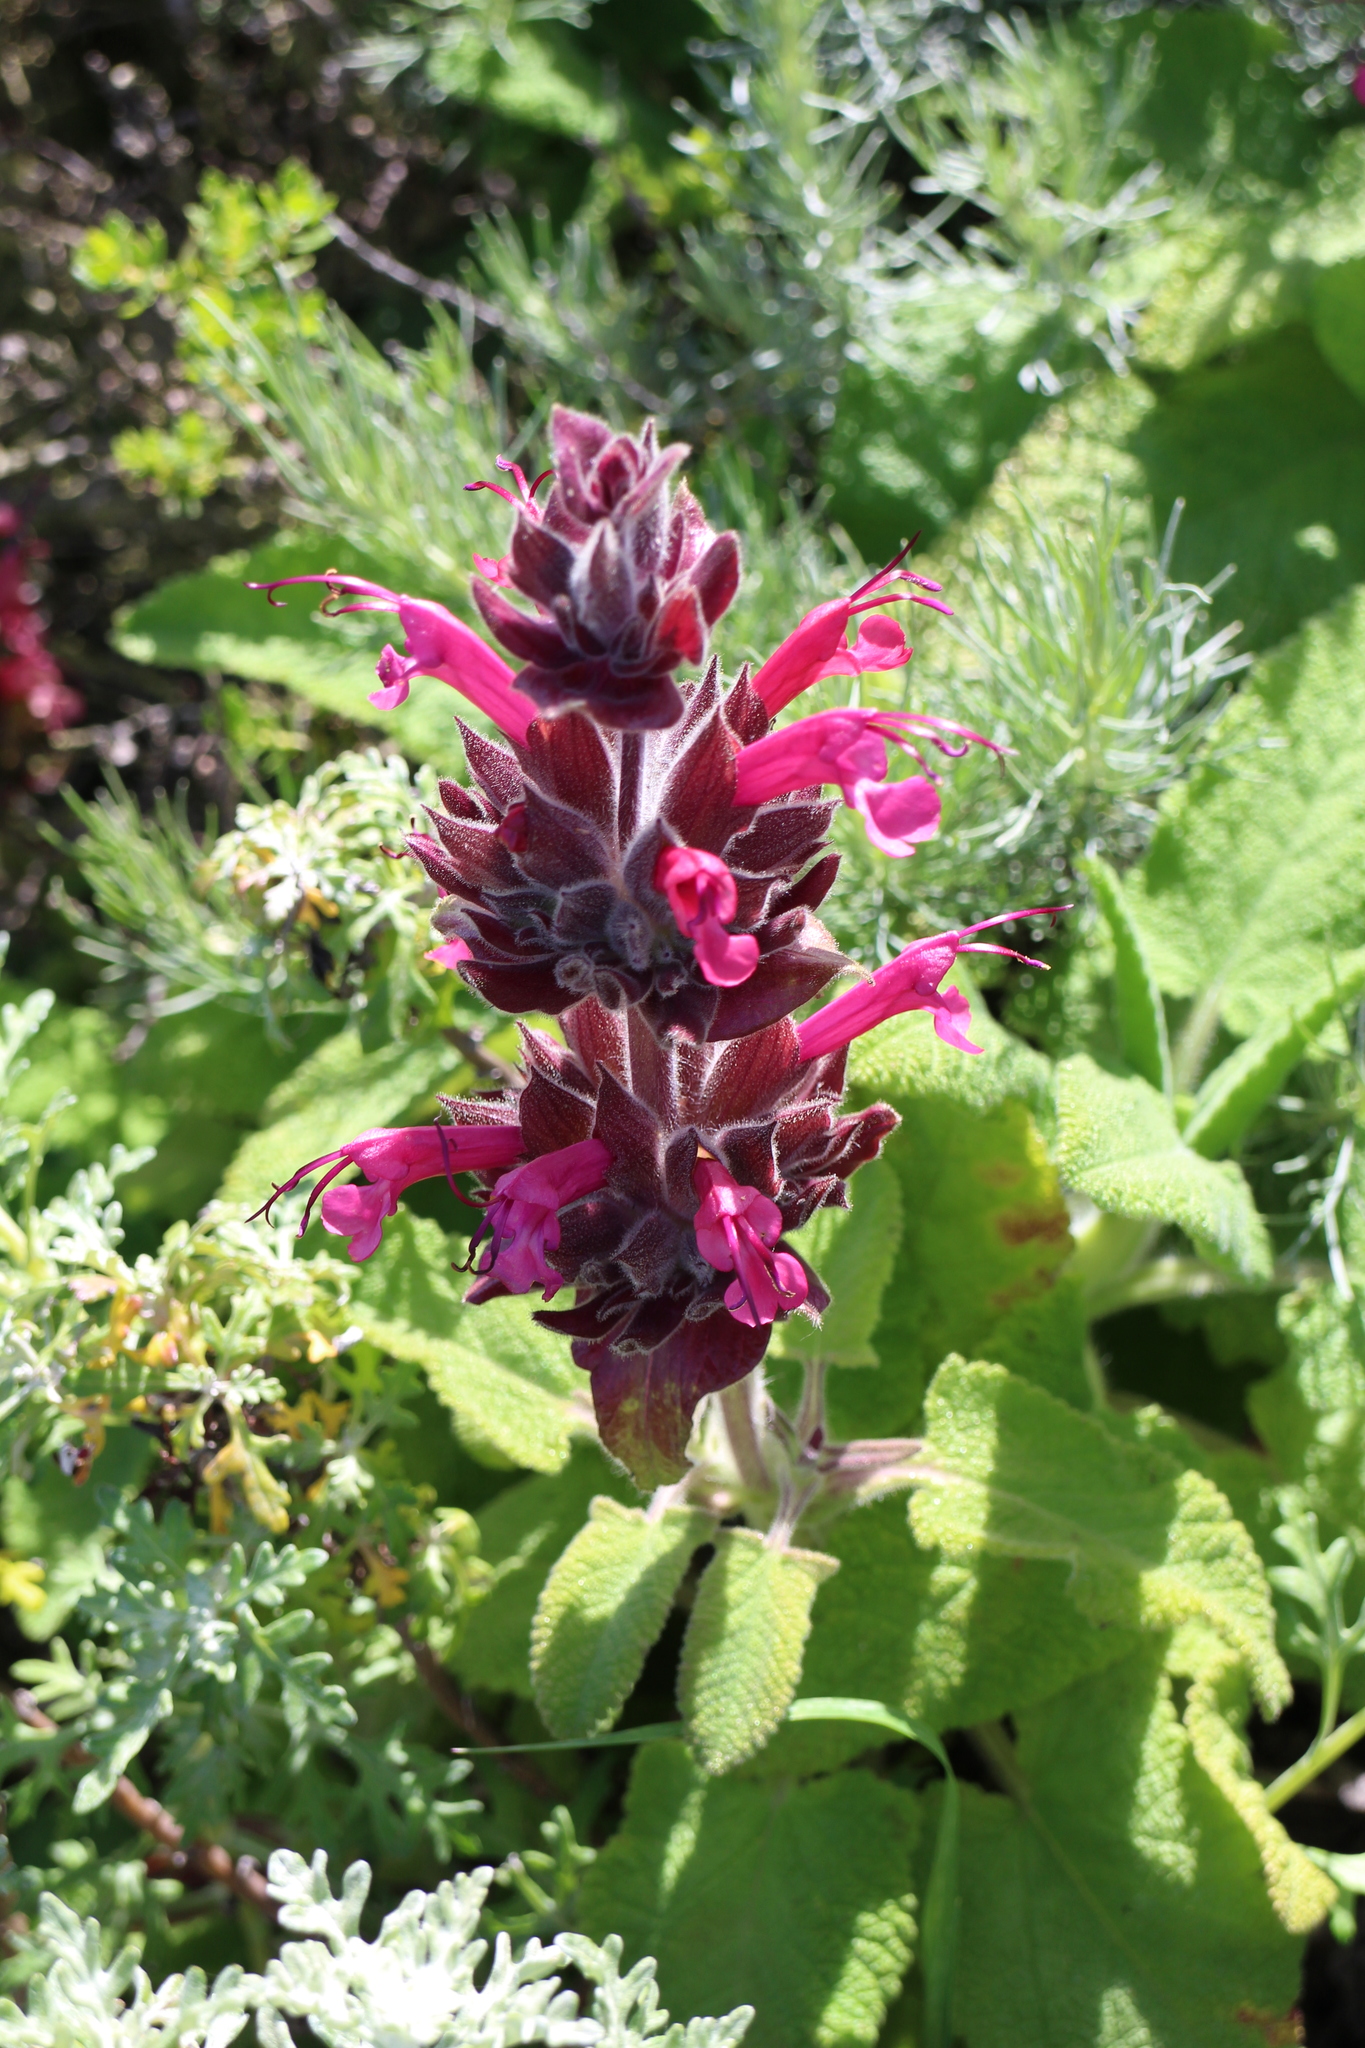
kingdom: Plantae
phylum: Tracheophyta
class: Magnoliopsida
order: Lamiales
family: Lamiaceae
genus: Salvia
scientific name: Salvia spathacea
